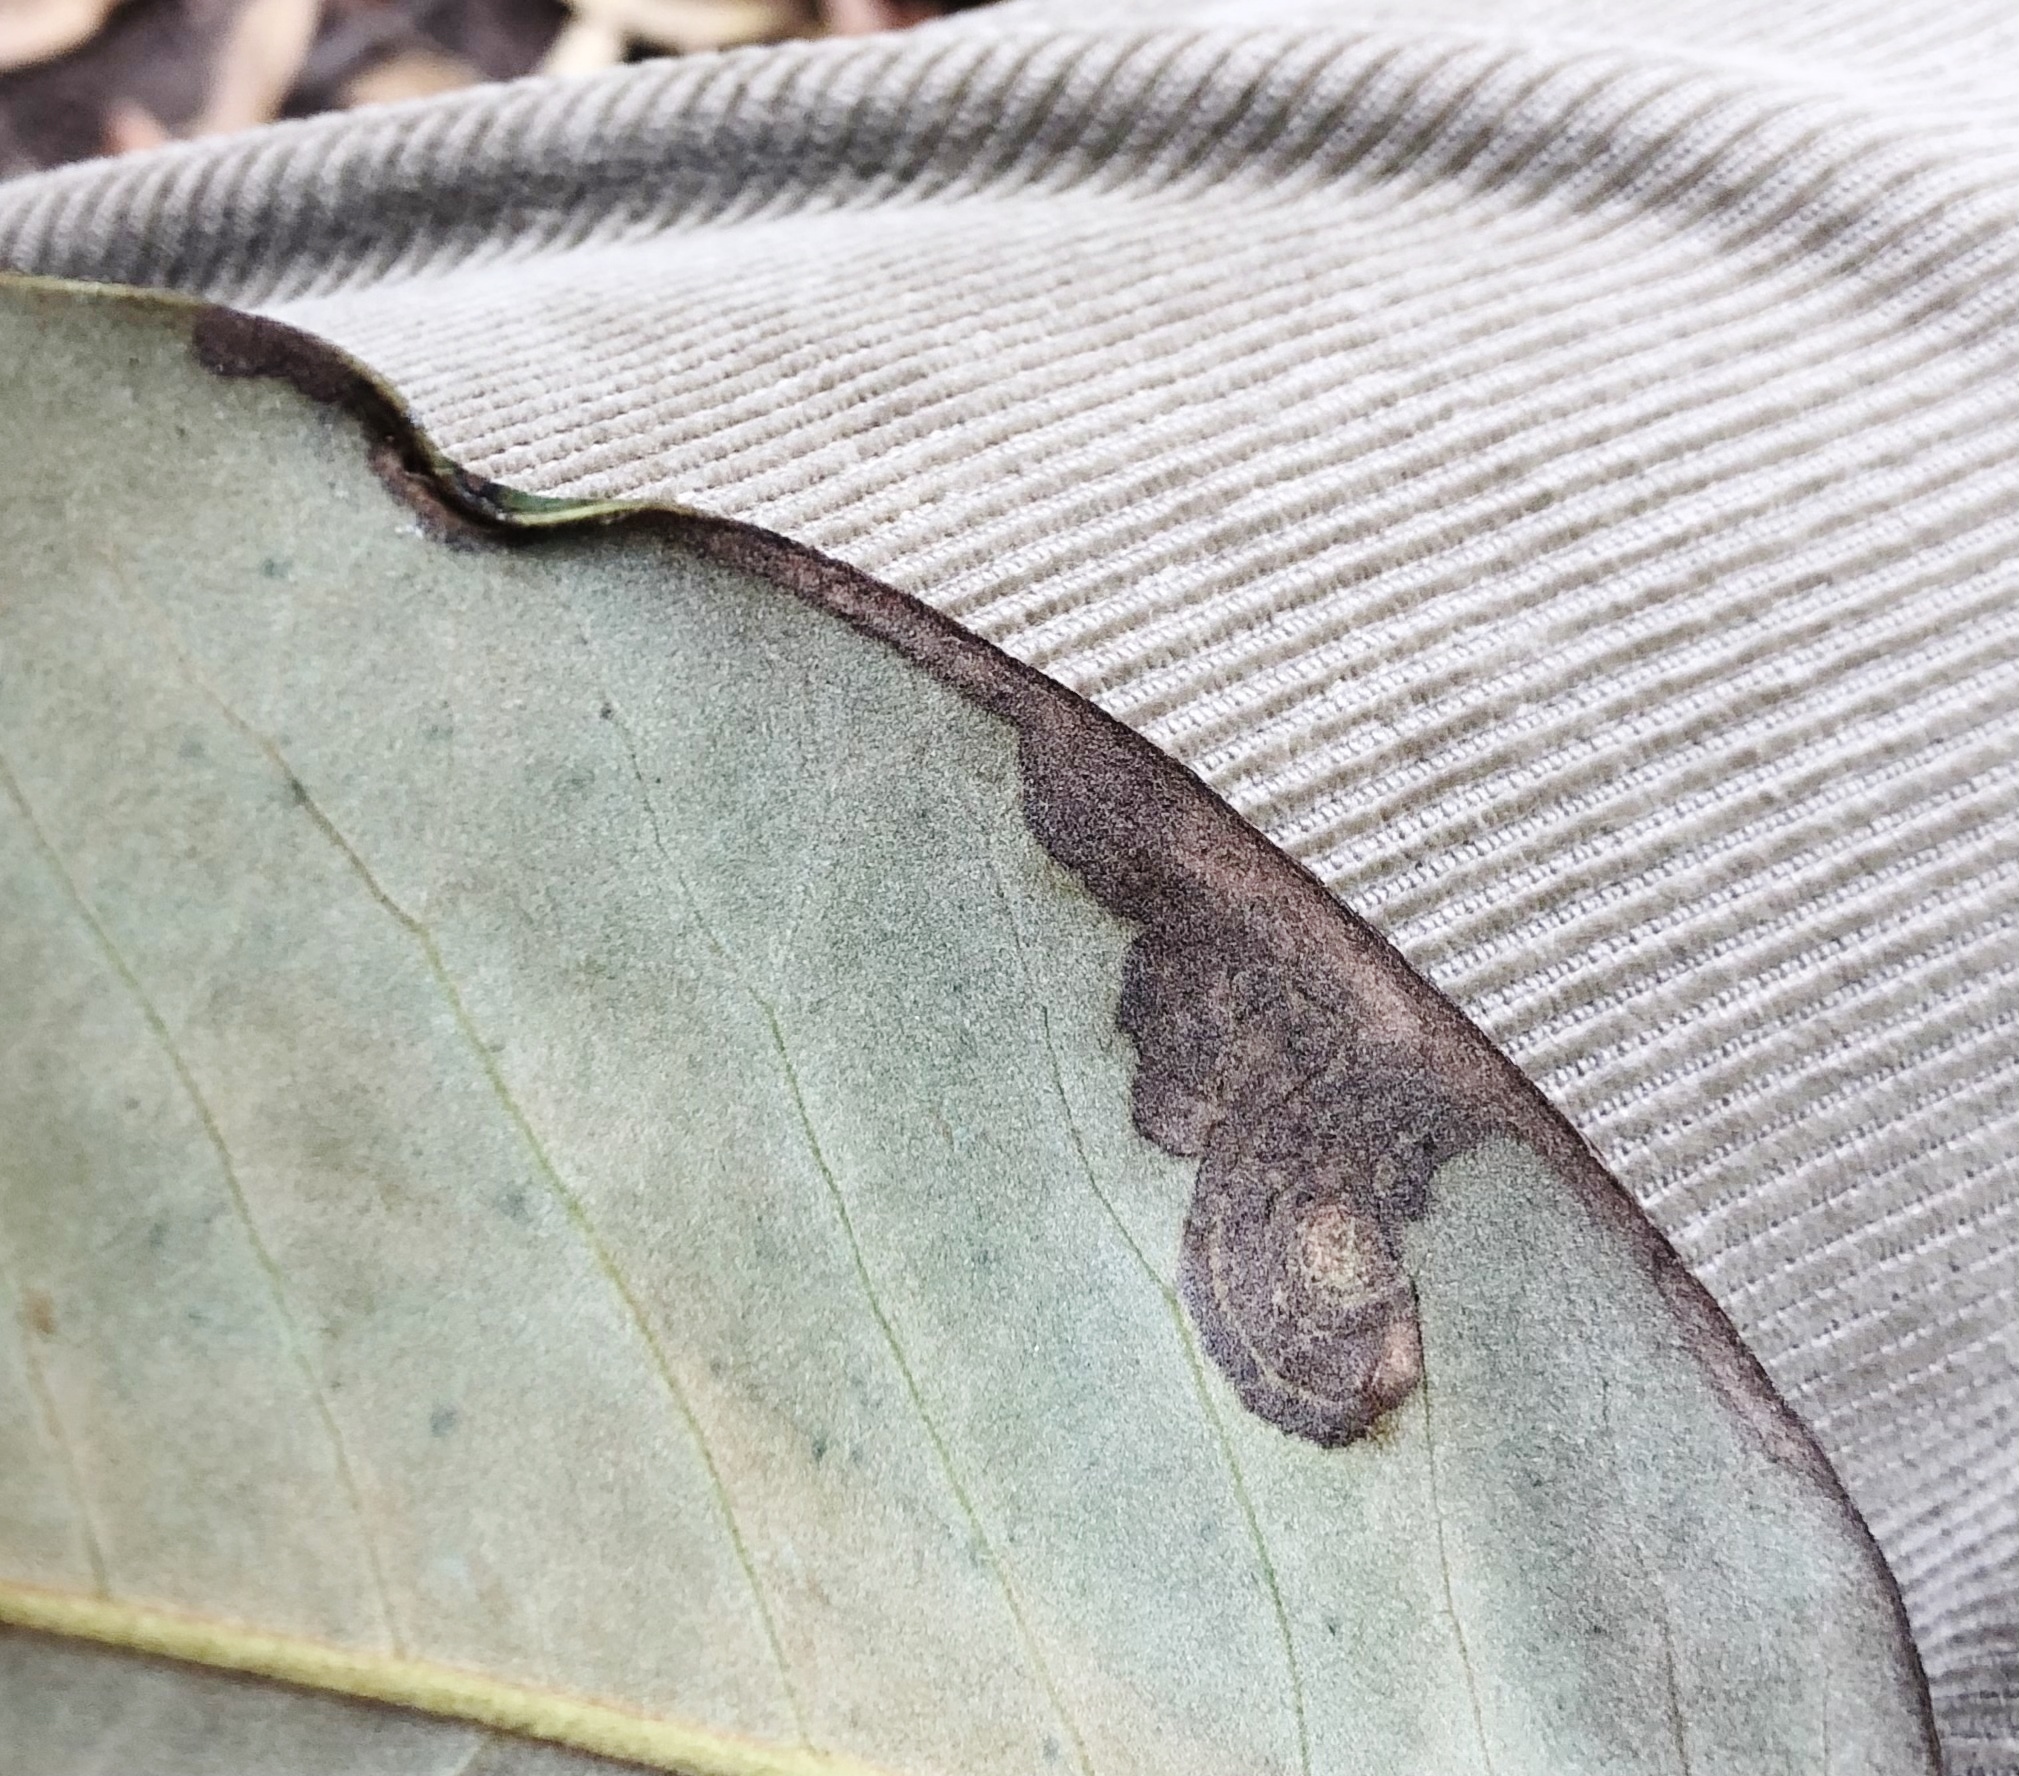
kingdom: Animalia
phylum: Arthropoda
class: Insecta
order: Lepidoptera
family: Gracillariidae
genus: Phyllocnistis
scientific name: Phyllocnistis liriodendronella
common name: Tulip tree leaf miner
